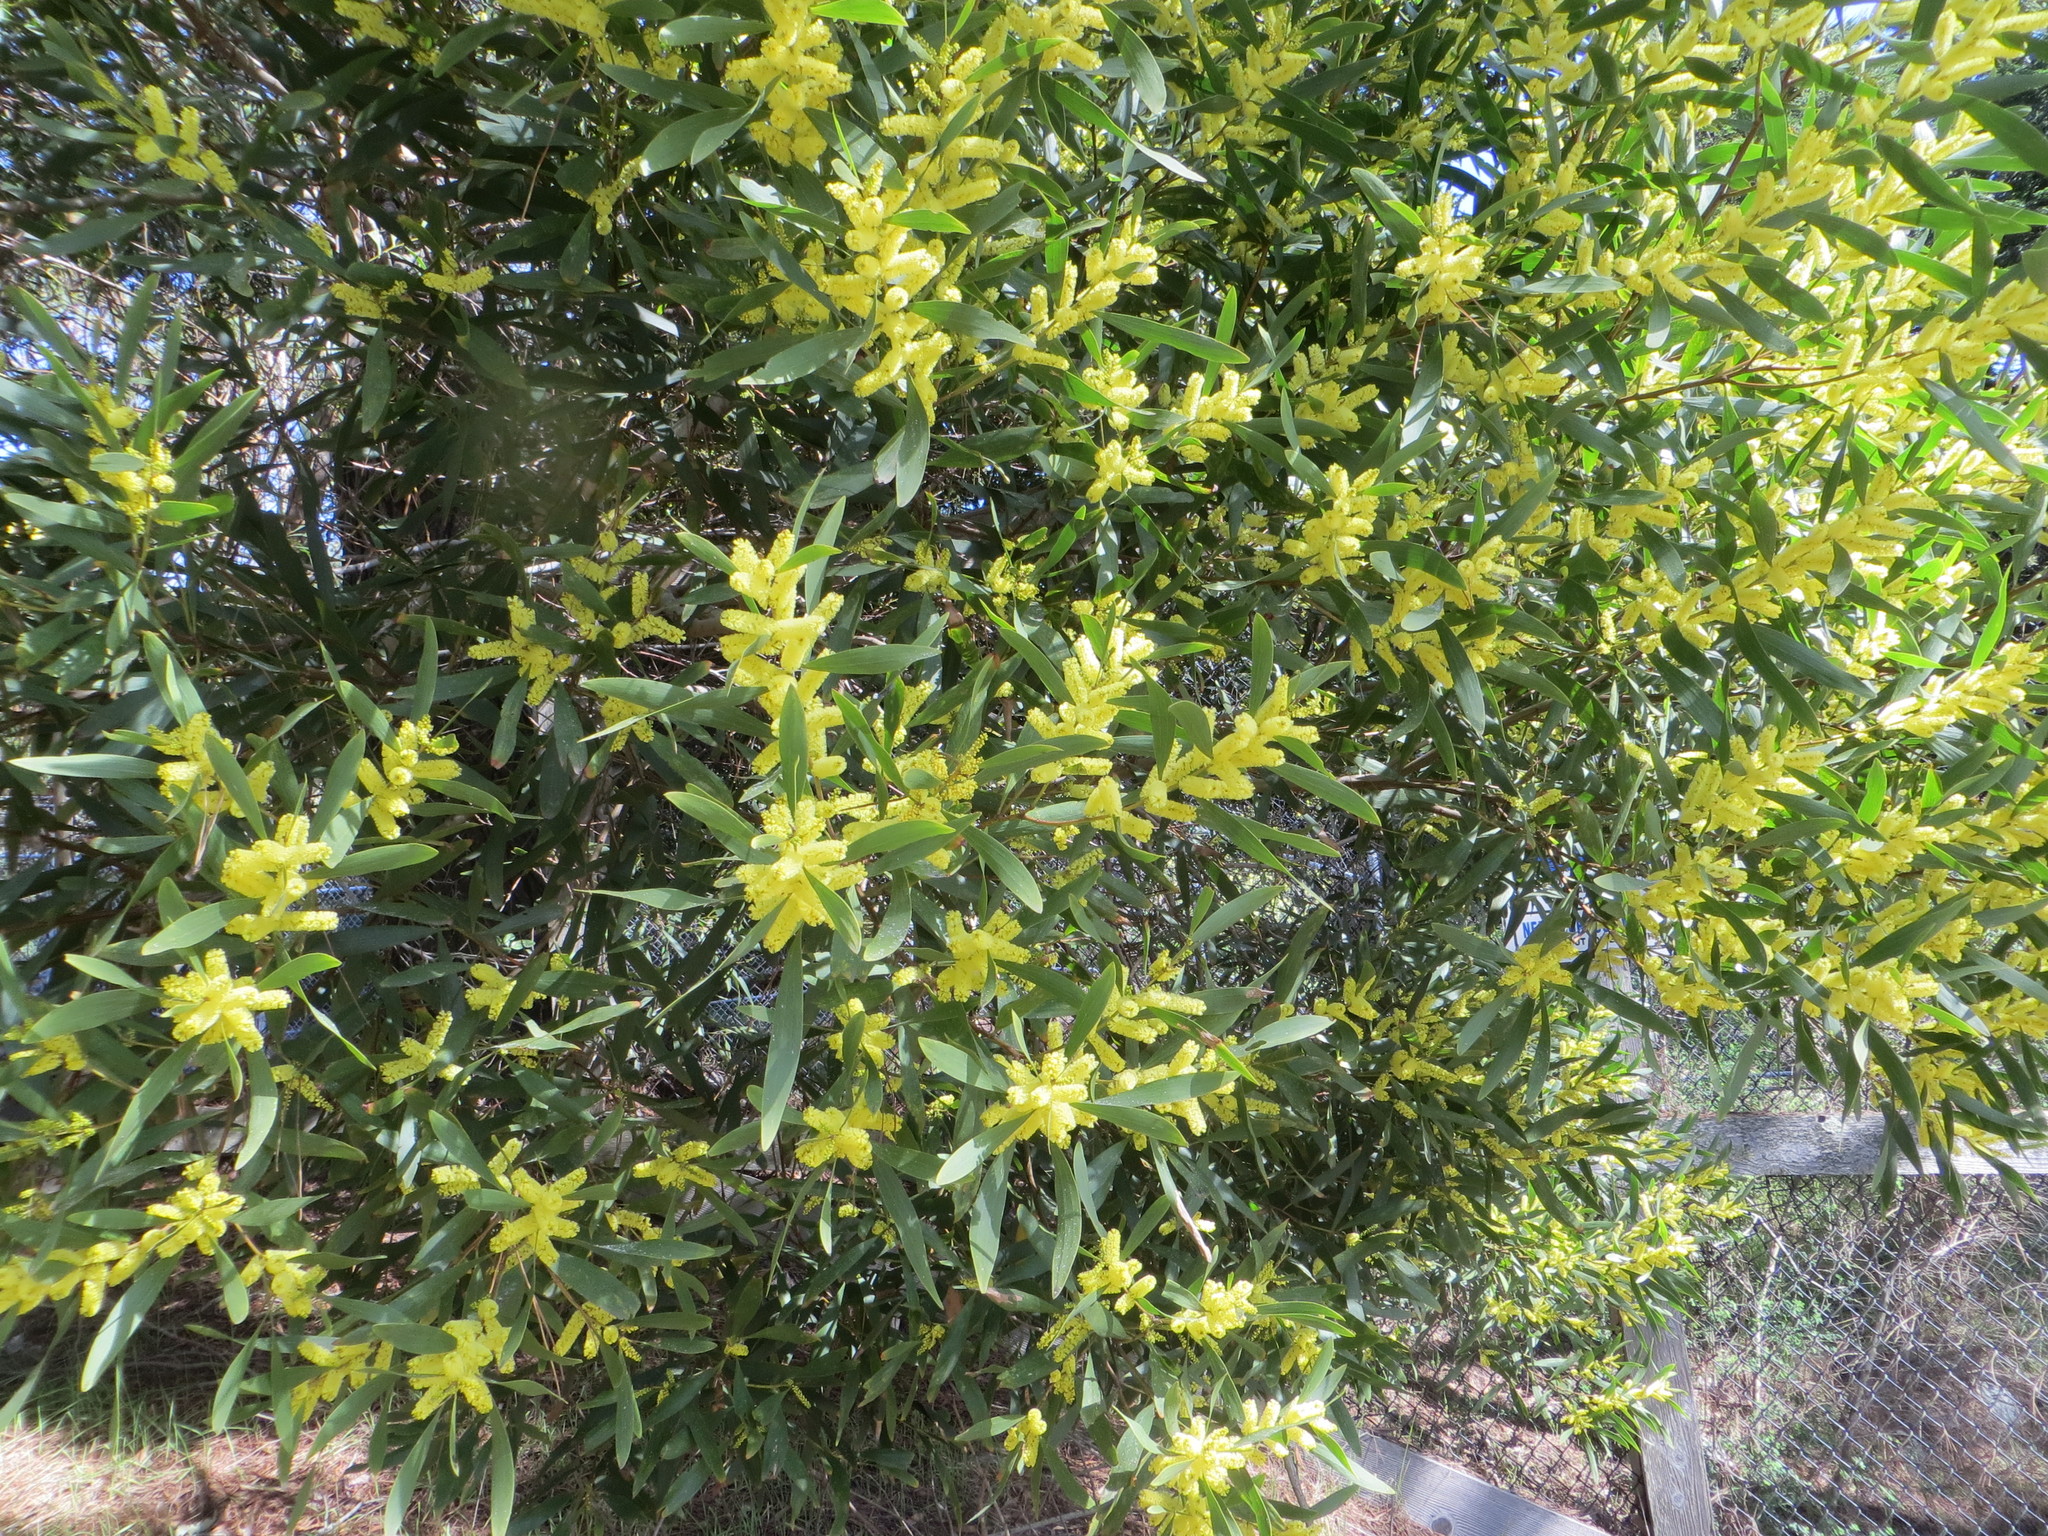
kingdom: Plantae
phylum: Tracheophyta
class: Magnoliopsida
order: Fabales
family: Fabaceae
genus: Acacia
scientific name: Acacia longifolia
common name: Sydney golden wattle
